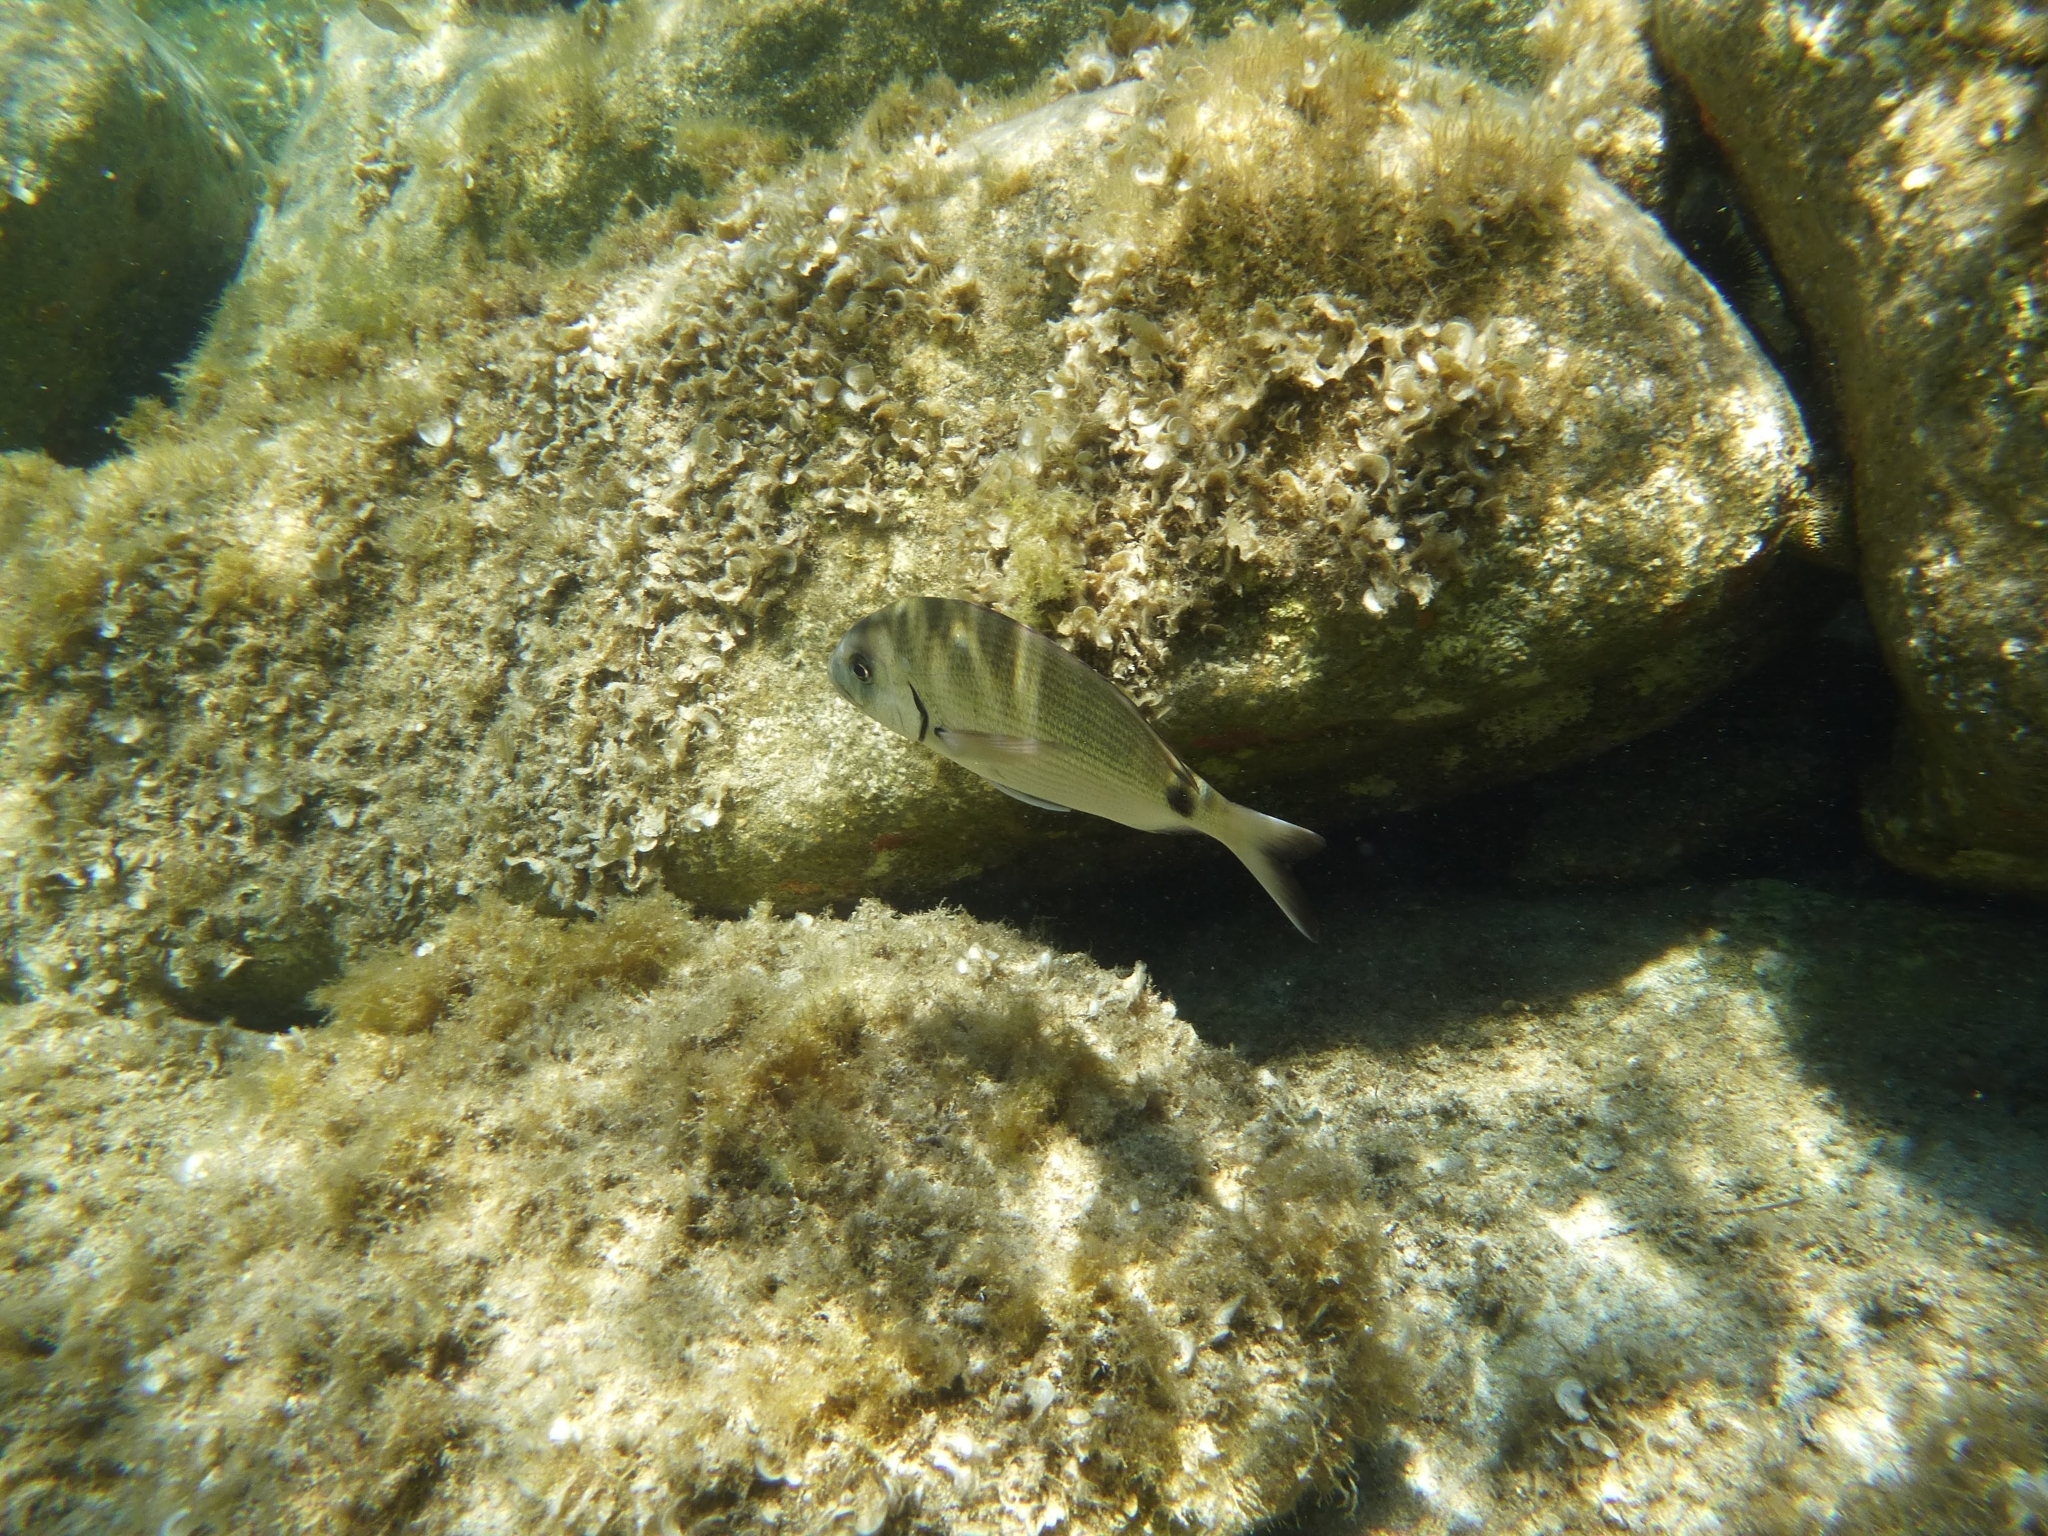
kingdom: Animalia
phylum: Chordata
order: Perciformes
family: Sparidae
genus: Diplodus
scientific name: Diplodus sargus
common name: White seabream
